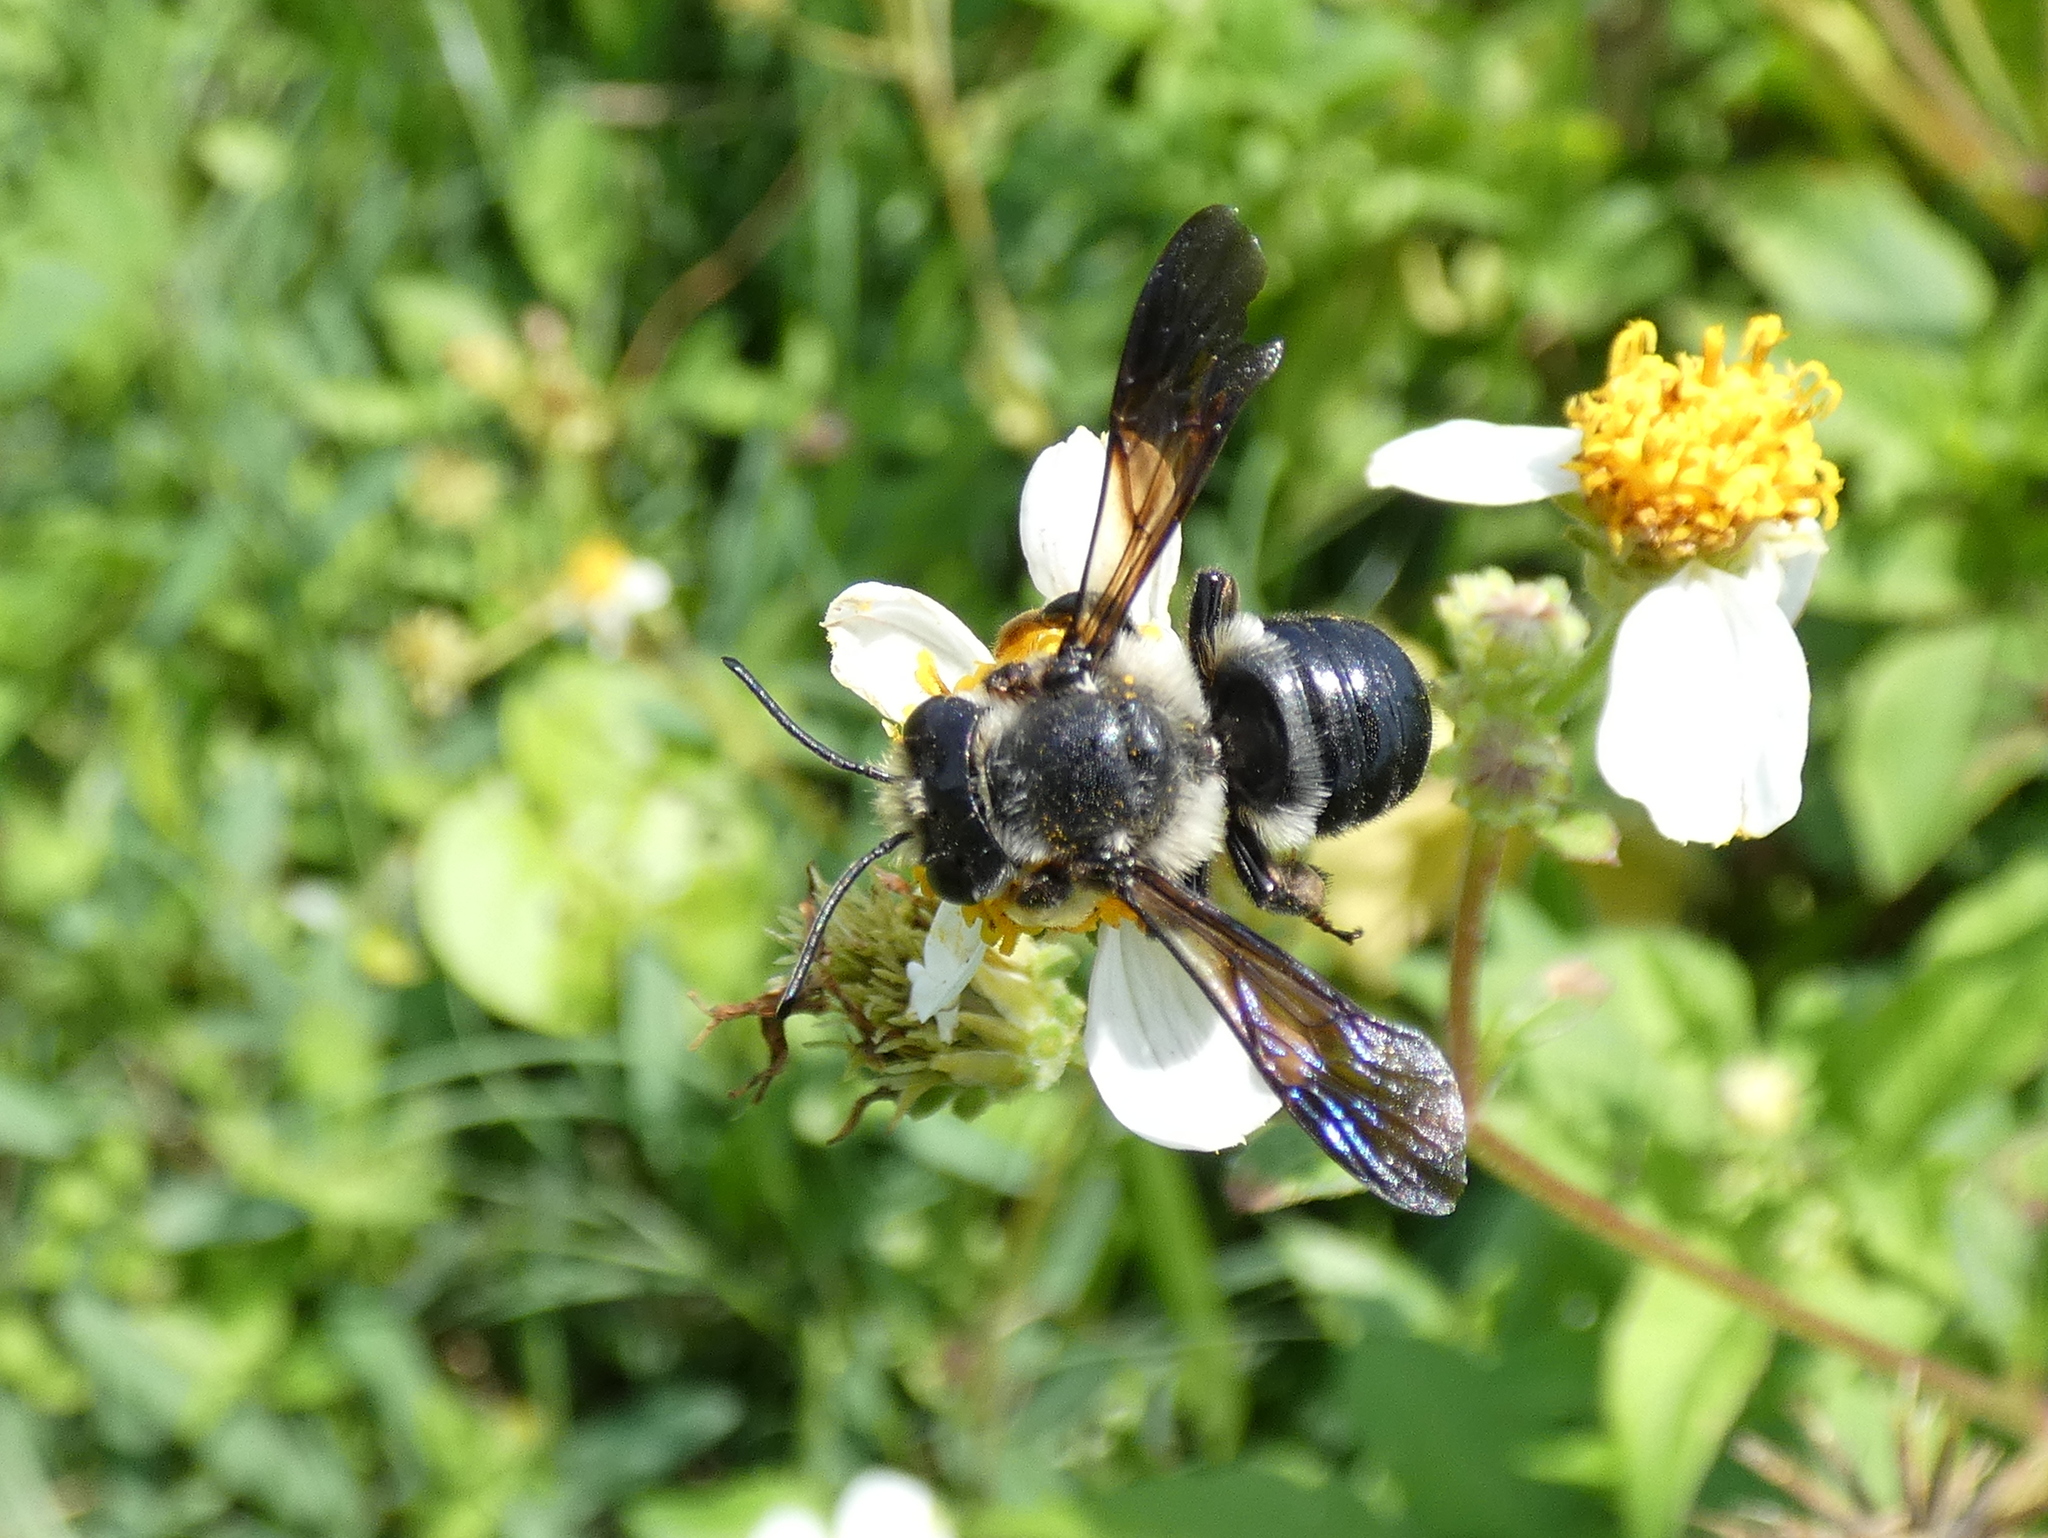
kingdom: Animalia
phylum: Arthropoda
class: Insecta
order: Hymenoptera
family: Megachilidae
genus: Megachile
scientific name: Megachile xylocopoides
